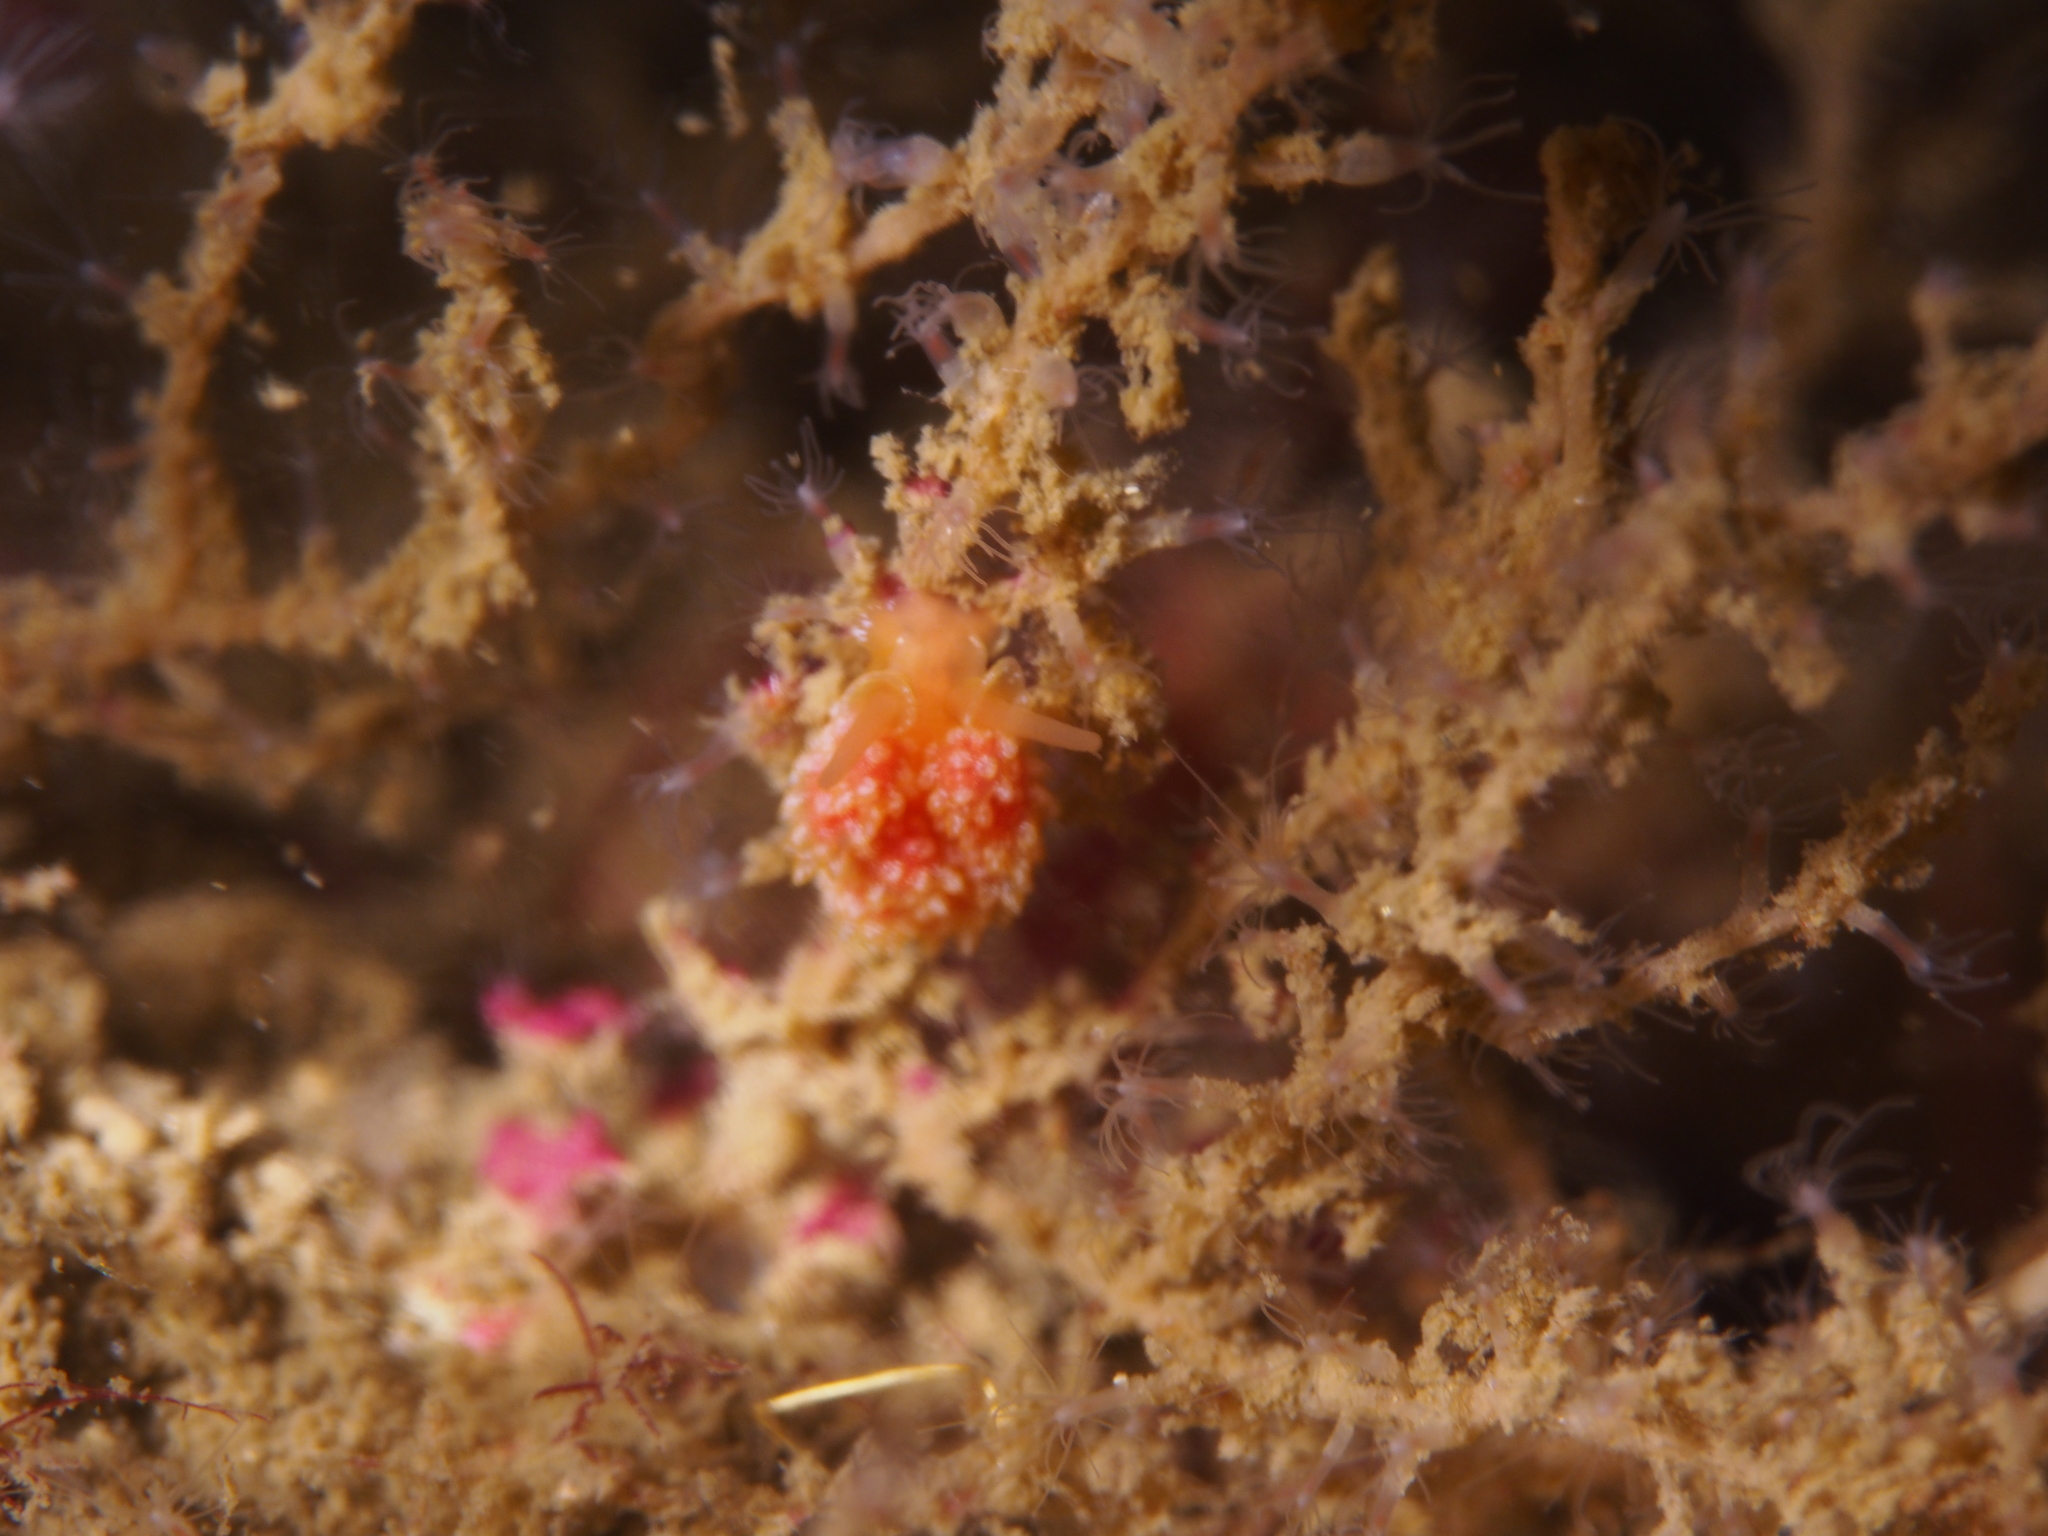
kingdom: Animalia
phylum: Mollusca
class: Gastropoda
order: Nudibranchia
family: Dotidae
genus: Doto
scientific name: Doto fragilis
